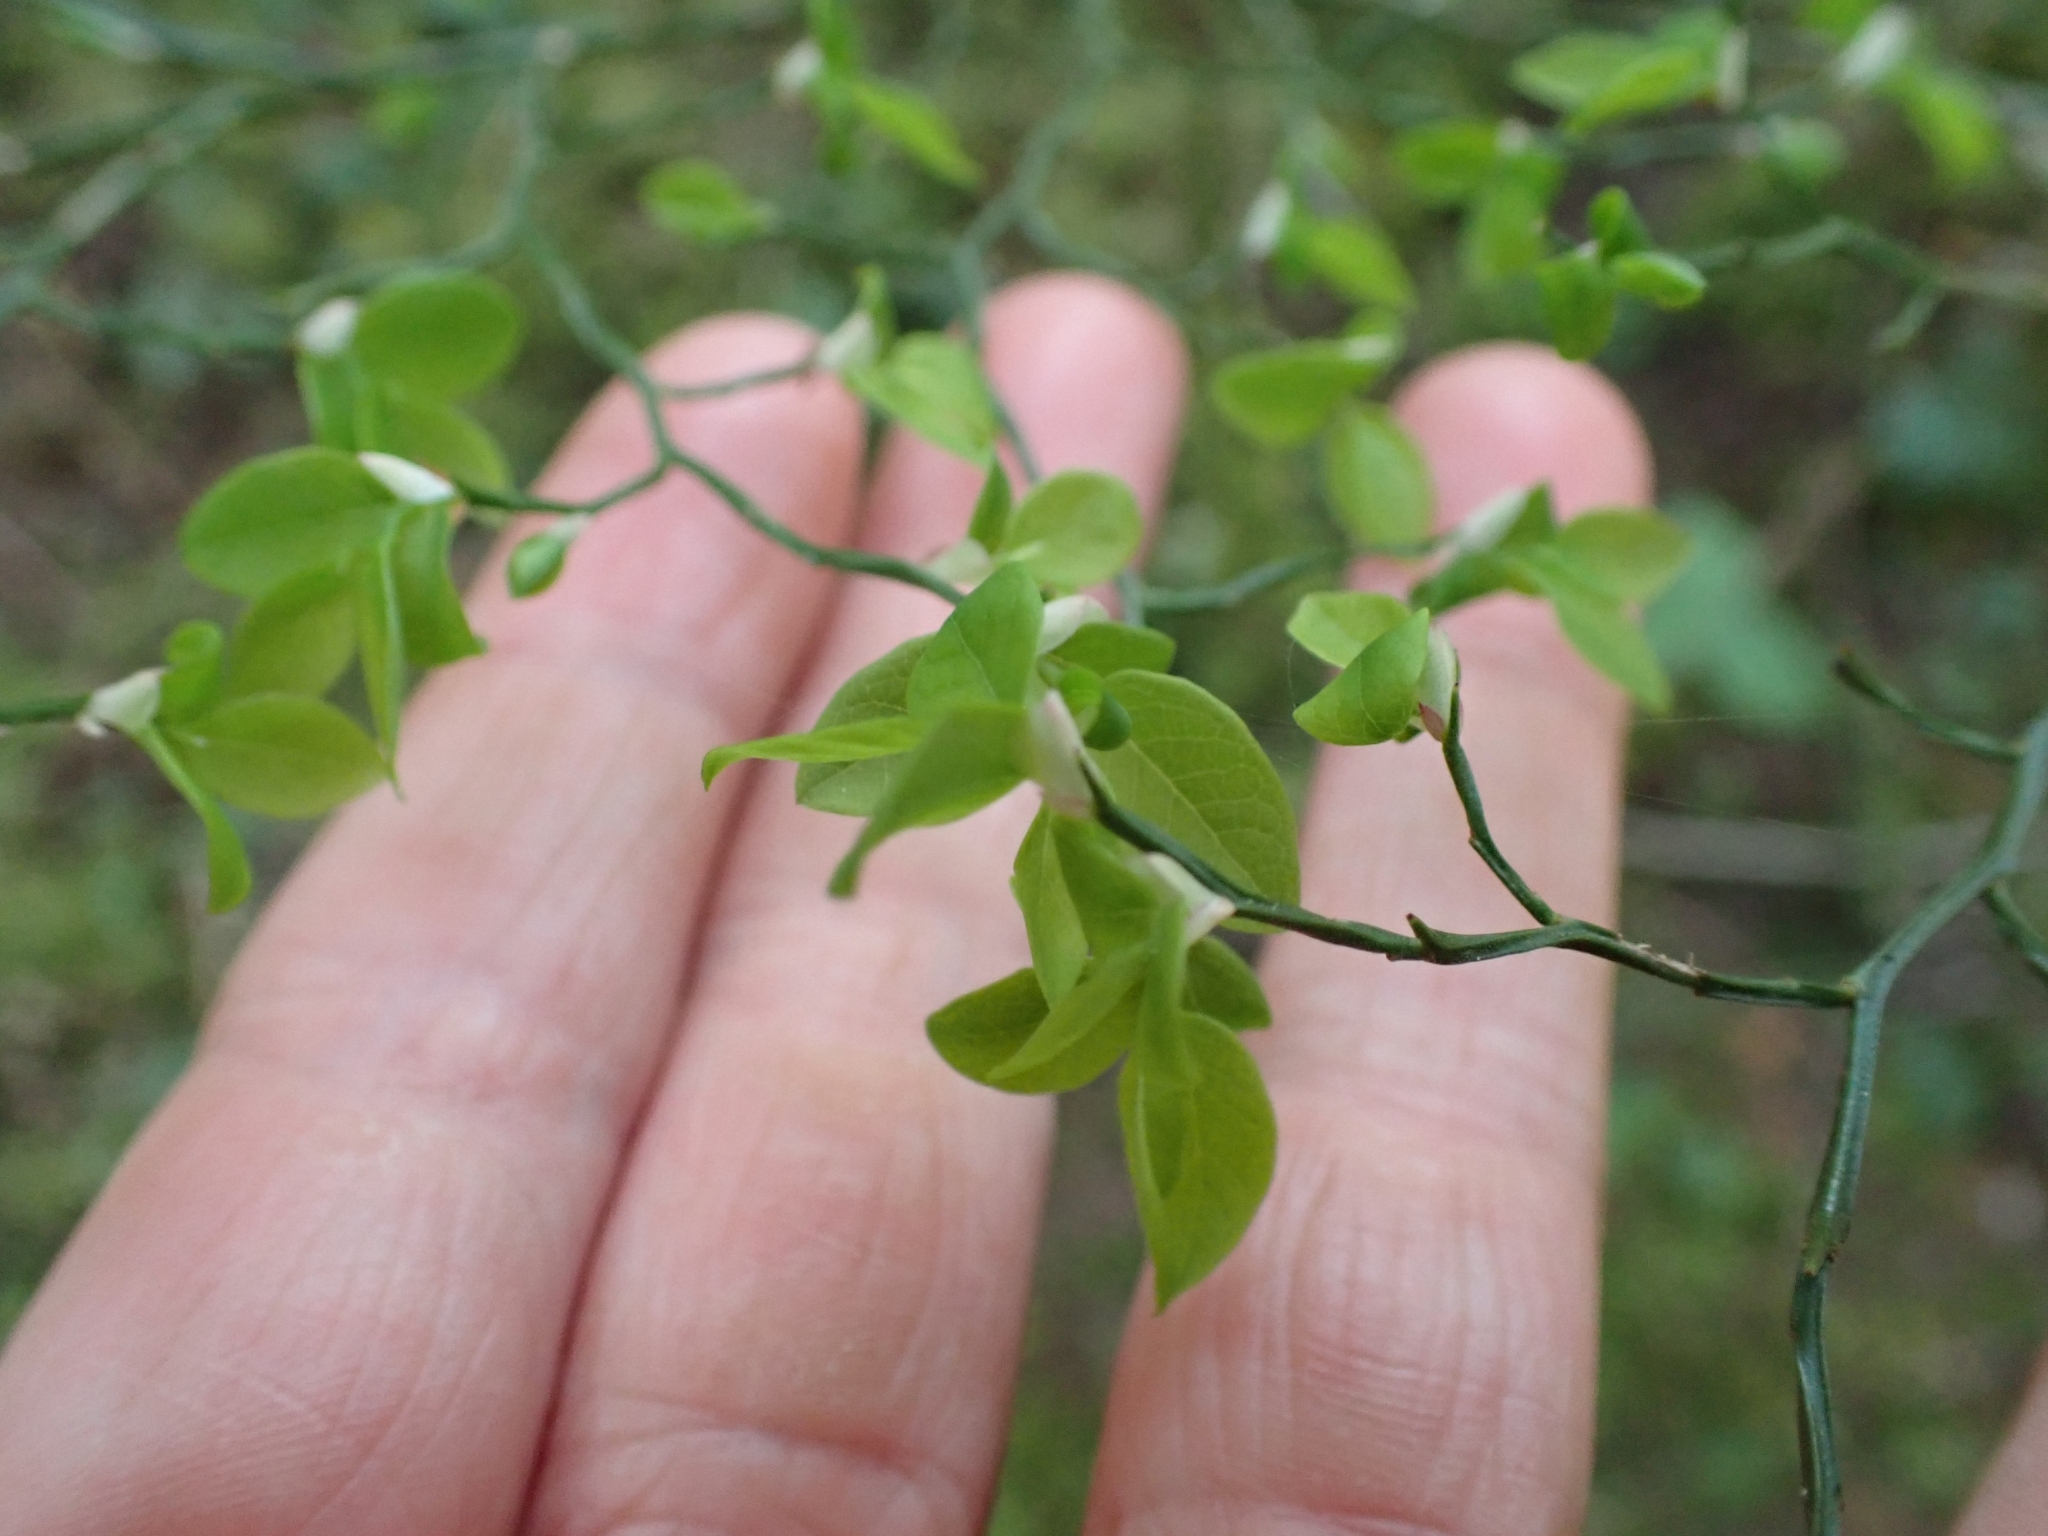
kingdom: Plantae
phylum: Tracheophyta
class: Magnoliopsida
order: Ericales
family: Ericaceae
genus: Vaccinium
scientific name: Vaccinium parvifolium
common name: Red-huckleberry
